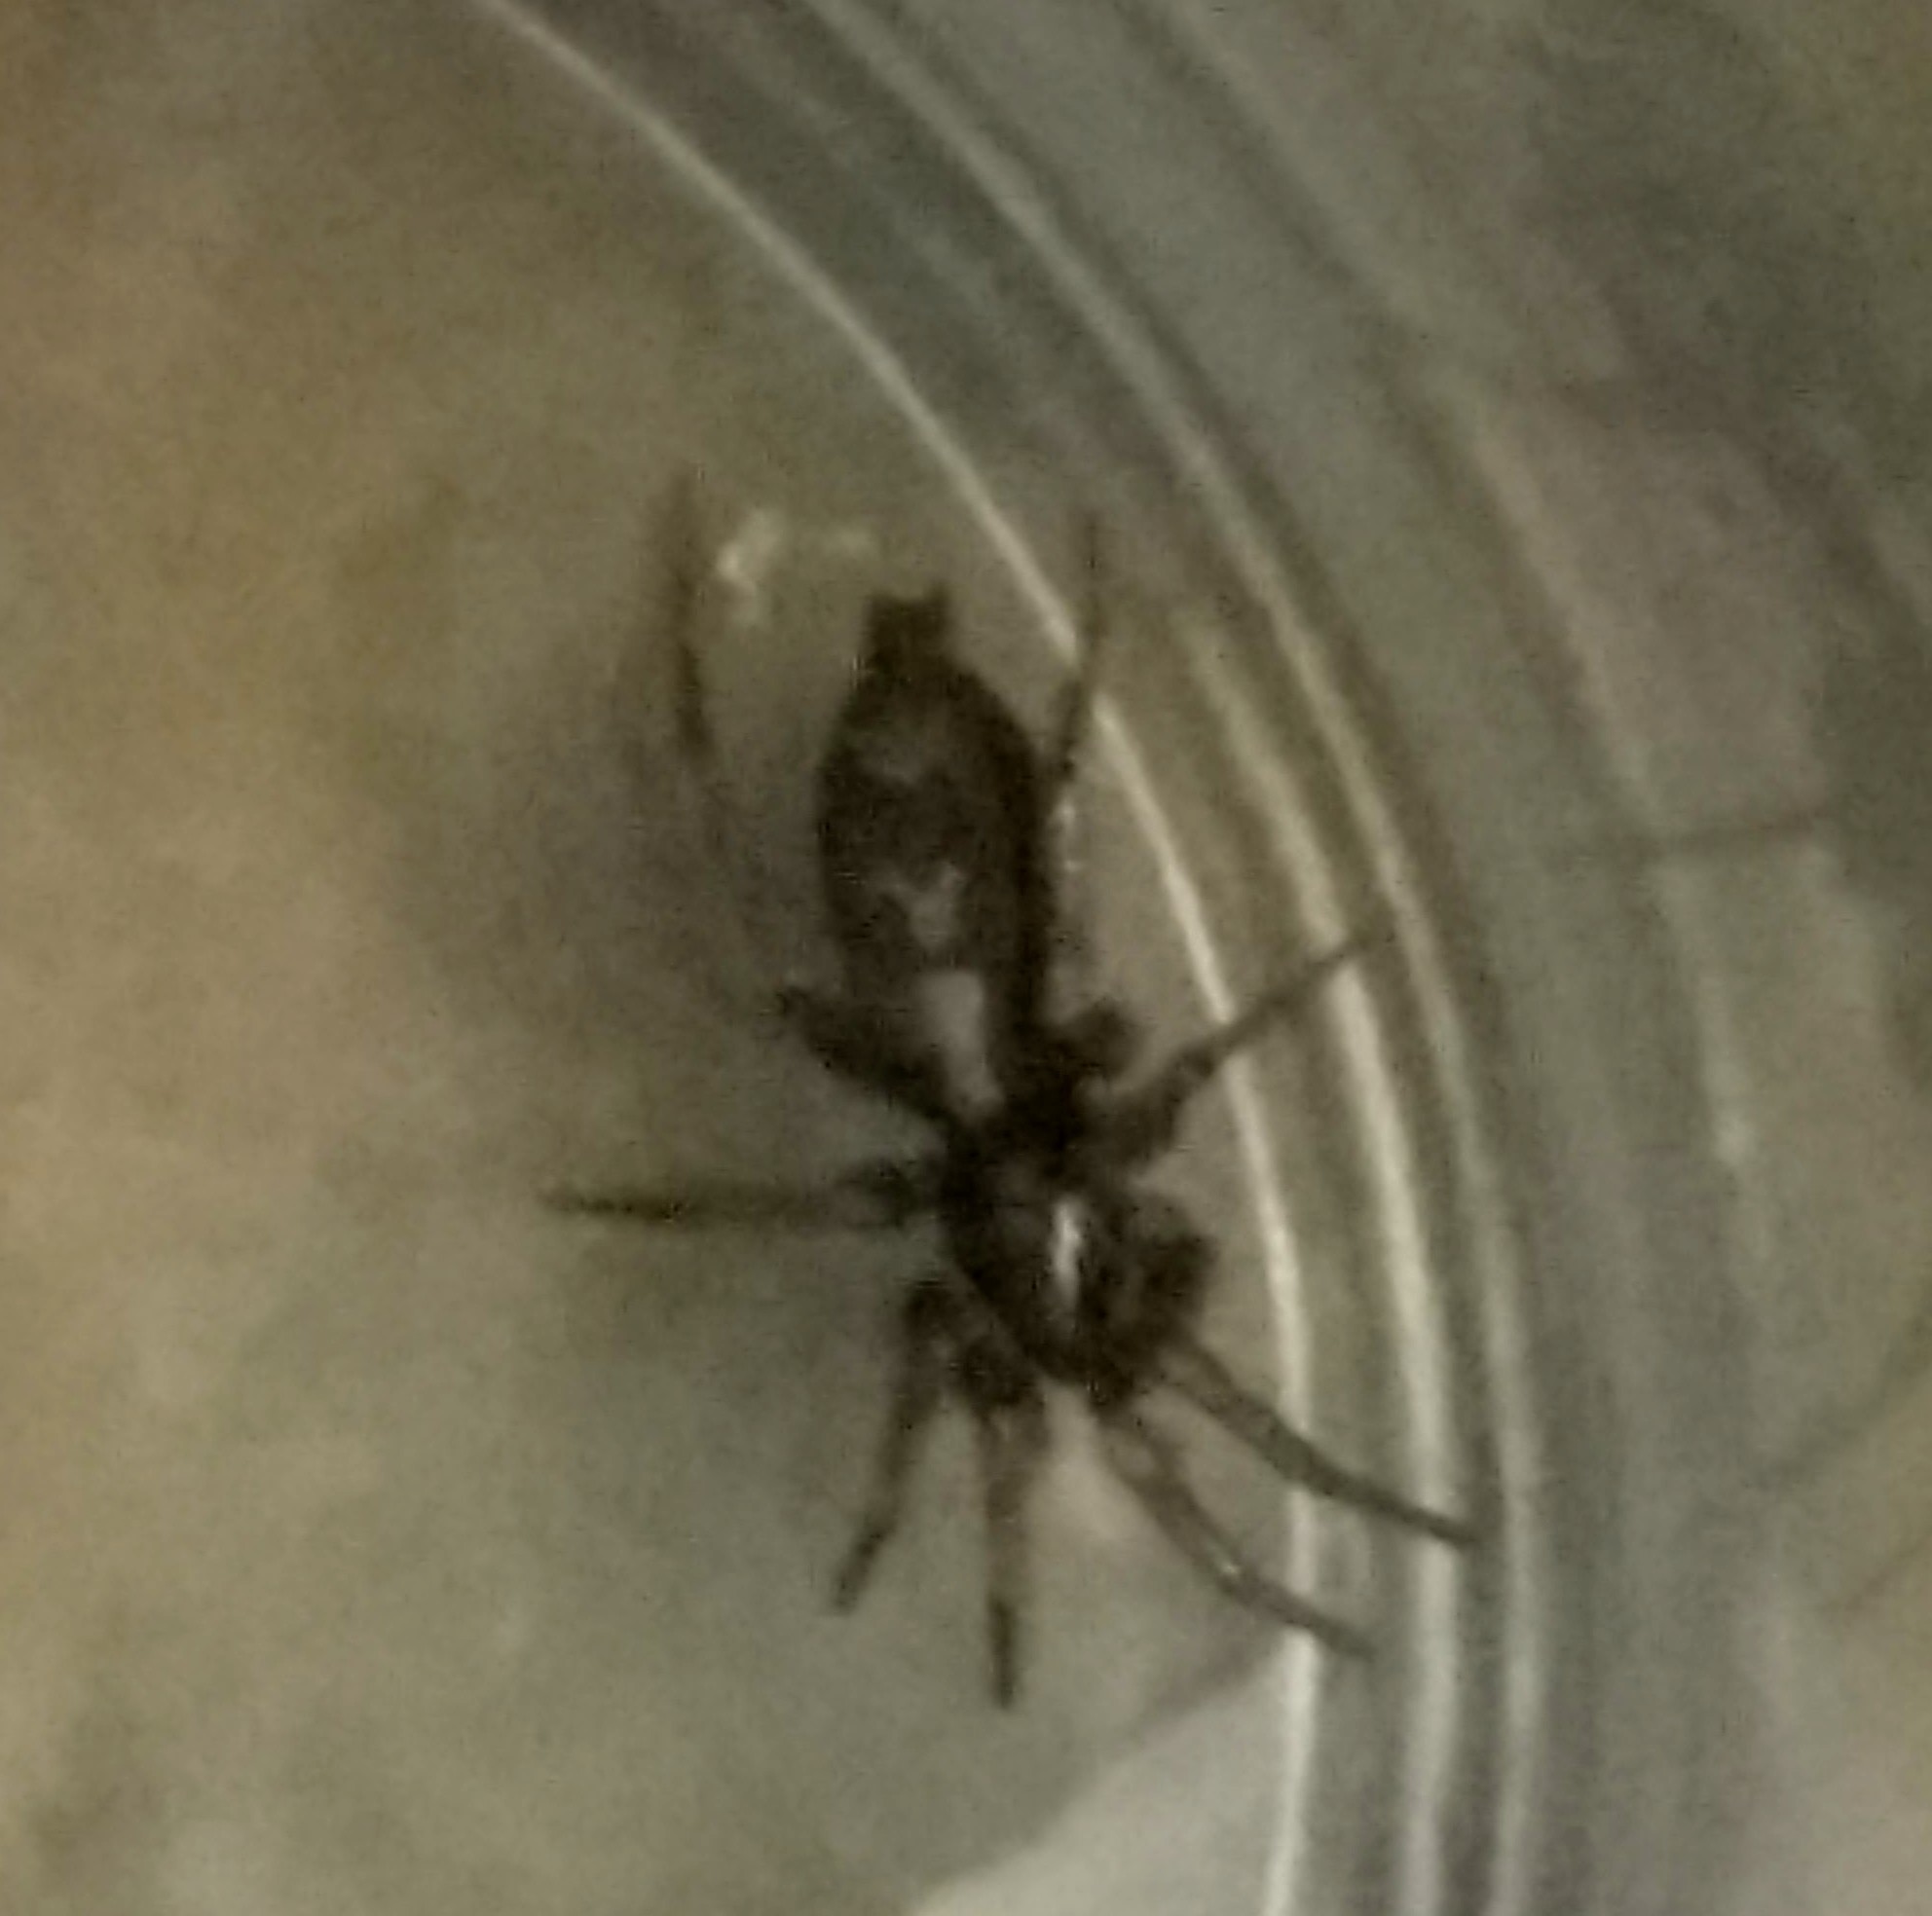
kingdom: Animalia
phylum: Arthropoda
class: Arachnida
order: Araneae
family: Gnaphosidae
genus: Herpyllus
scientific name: Herpyllus ecclesiasticus
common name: Eastern parson spider
